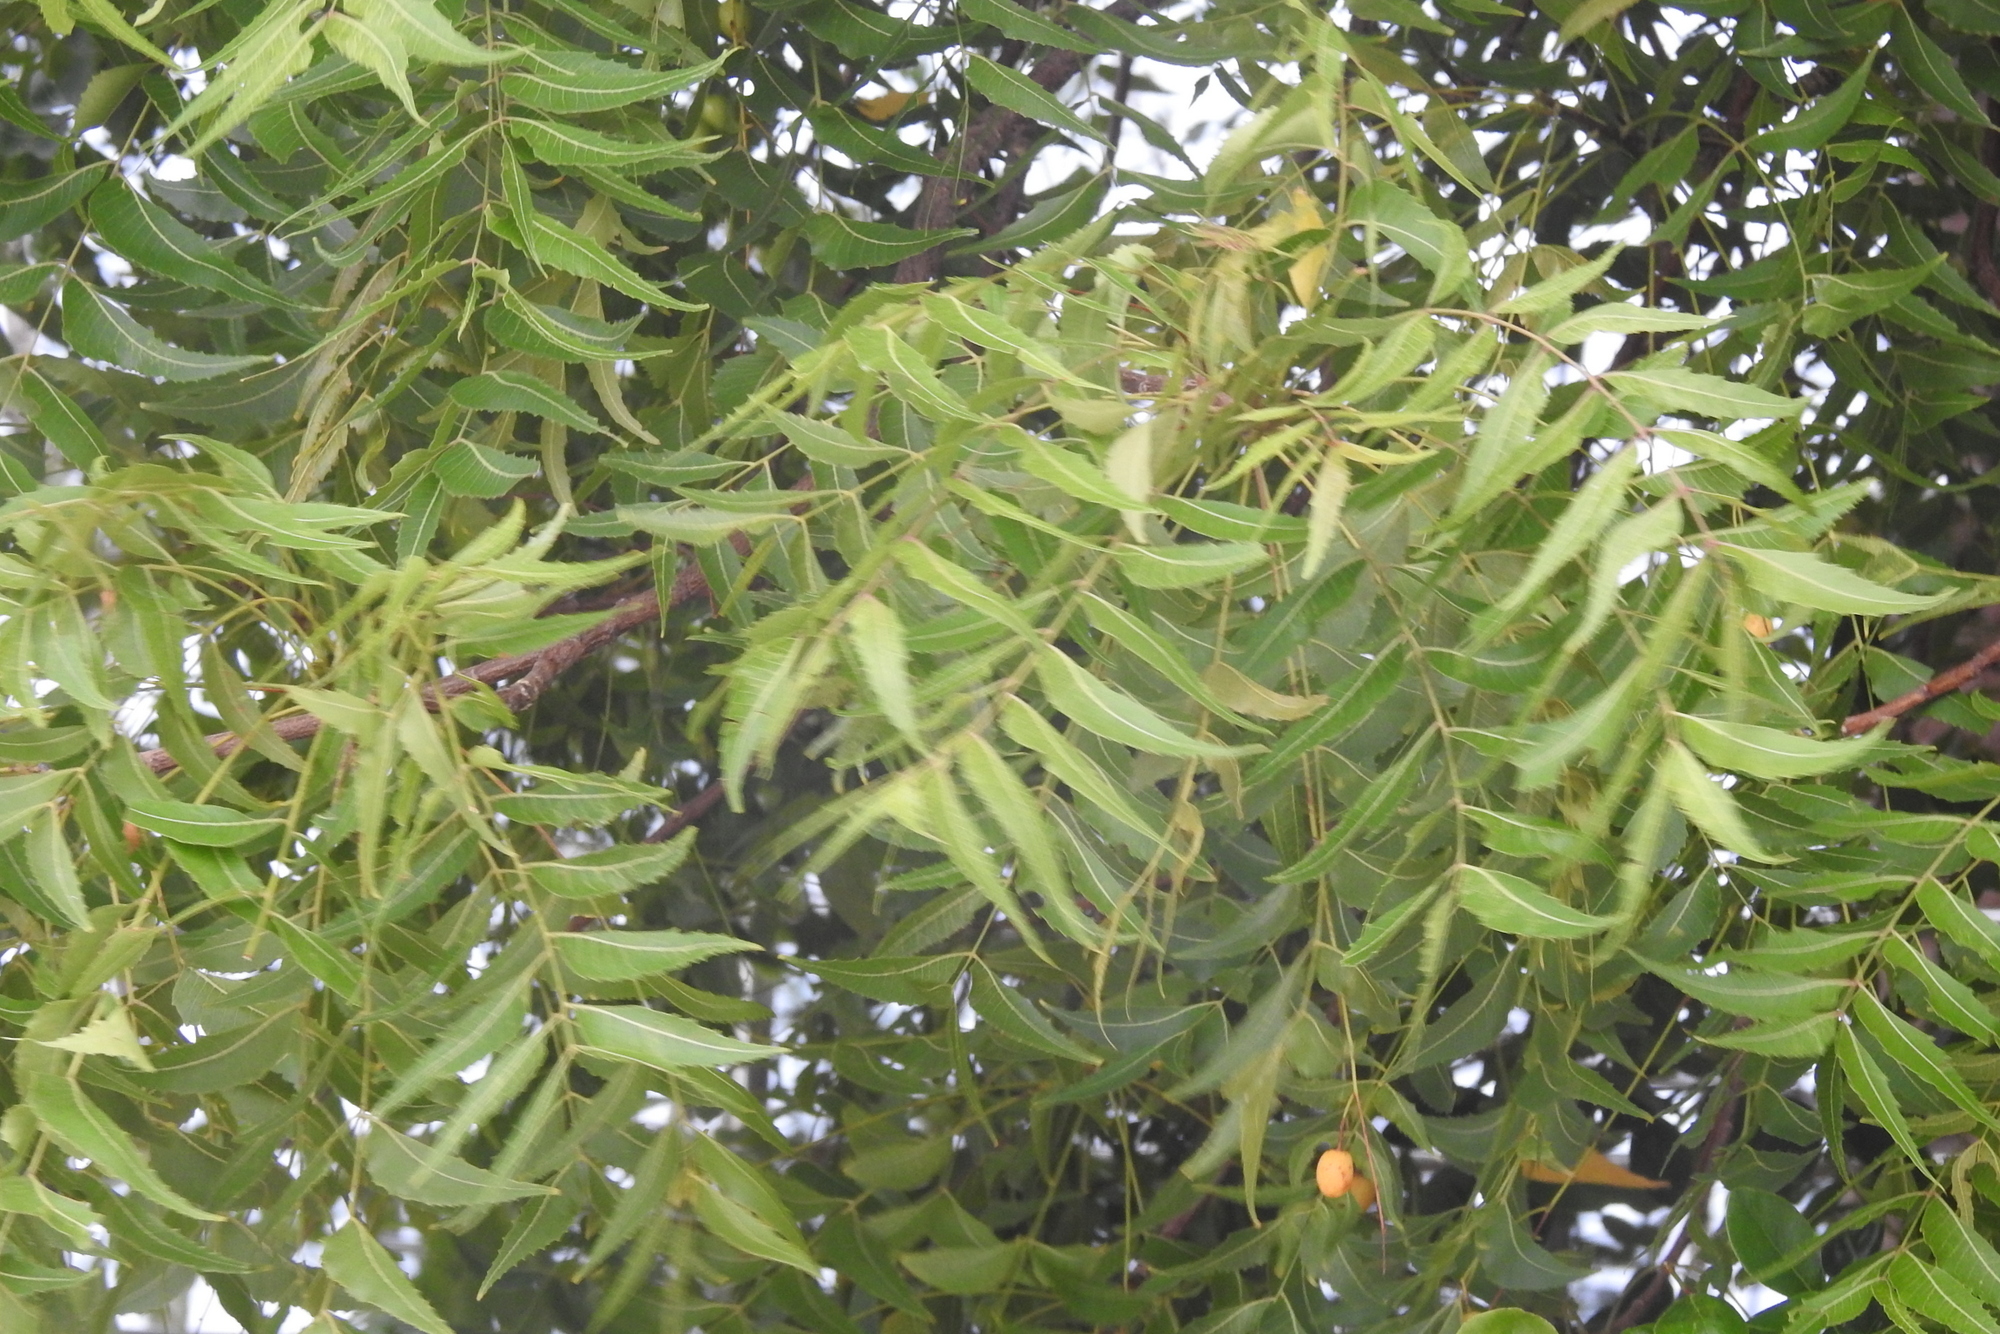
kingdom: Plantae
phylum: Tracheophyta
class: Magnoliopsida
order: Sapindales
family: Meliaceae
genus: Azadirachta
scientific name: Azadirachta indica
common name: Neem
